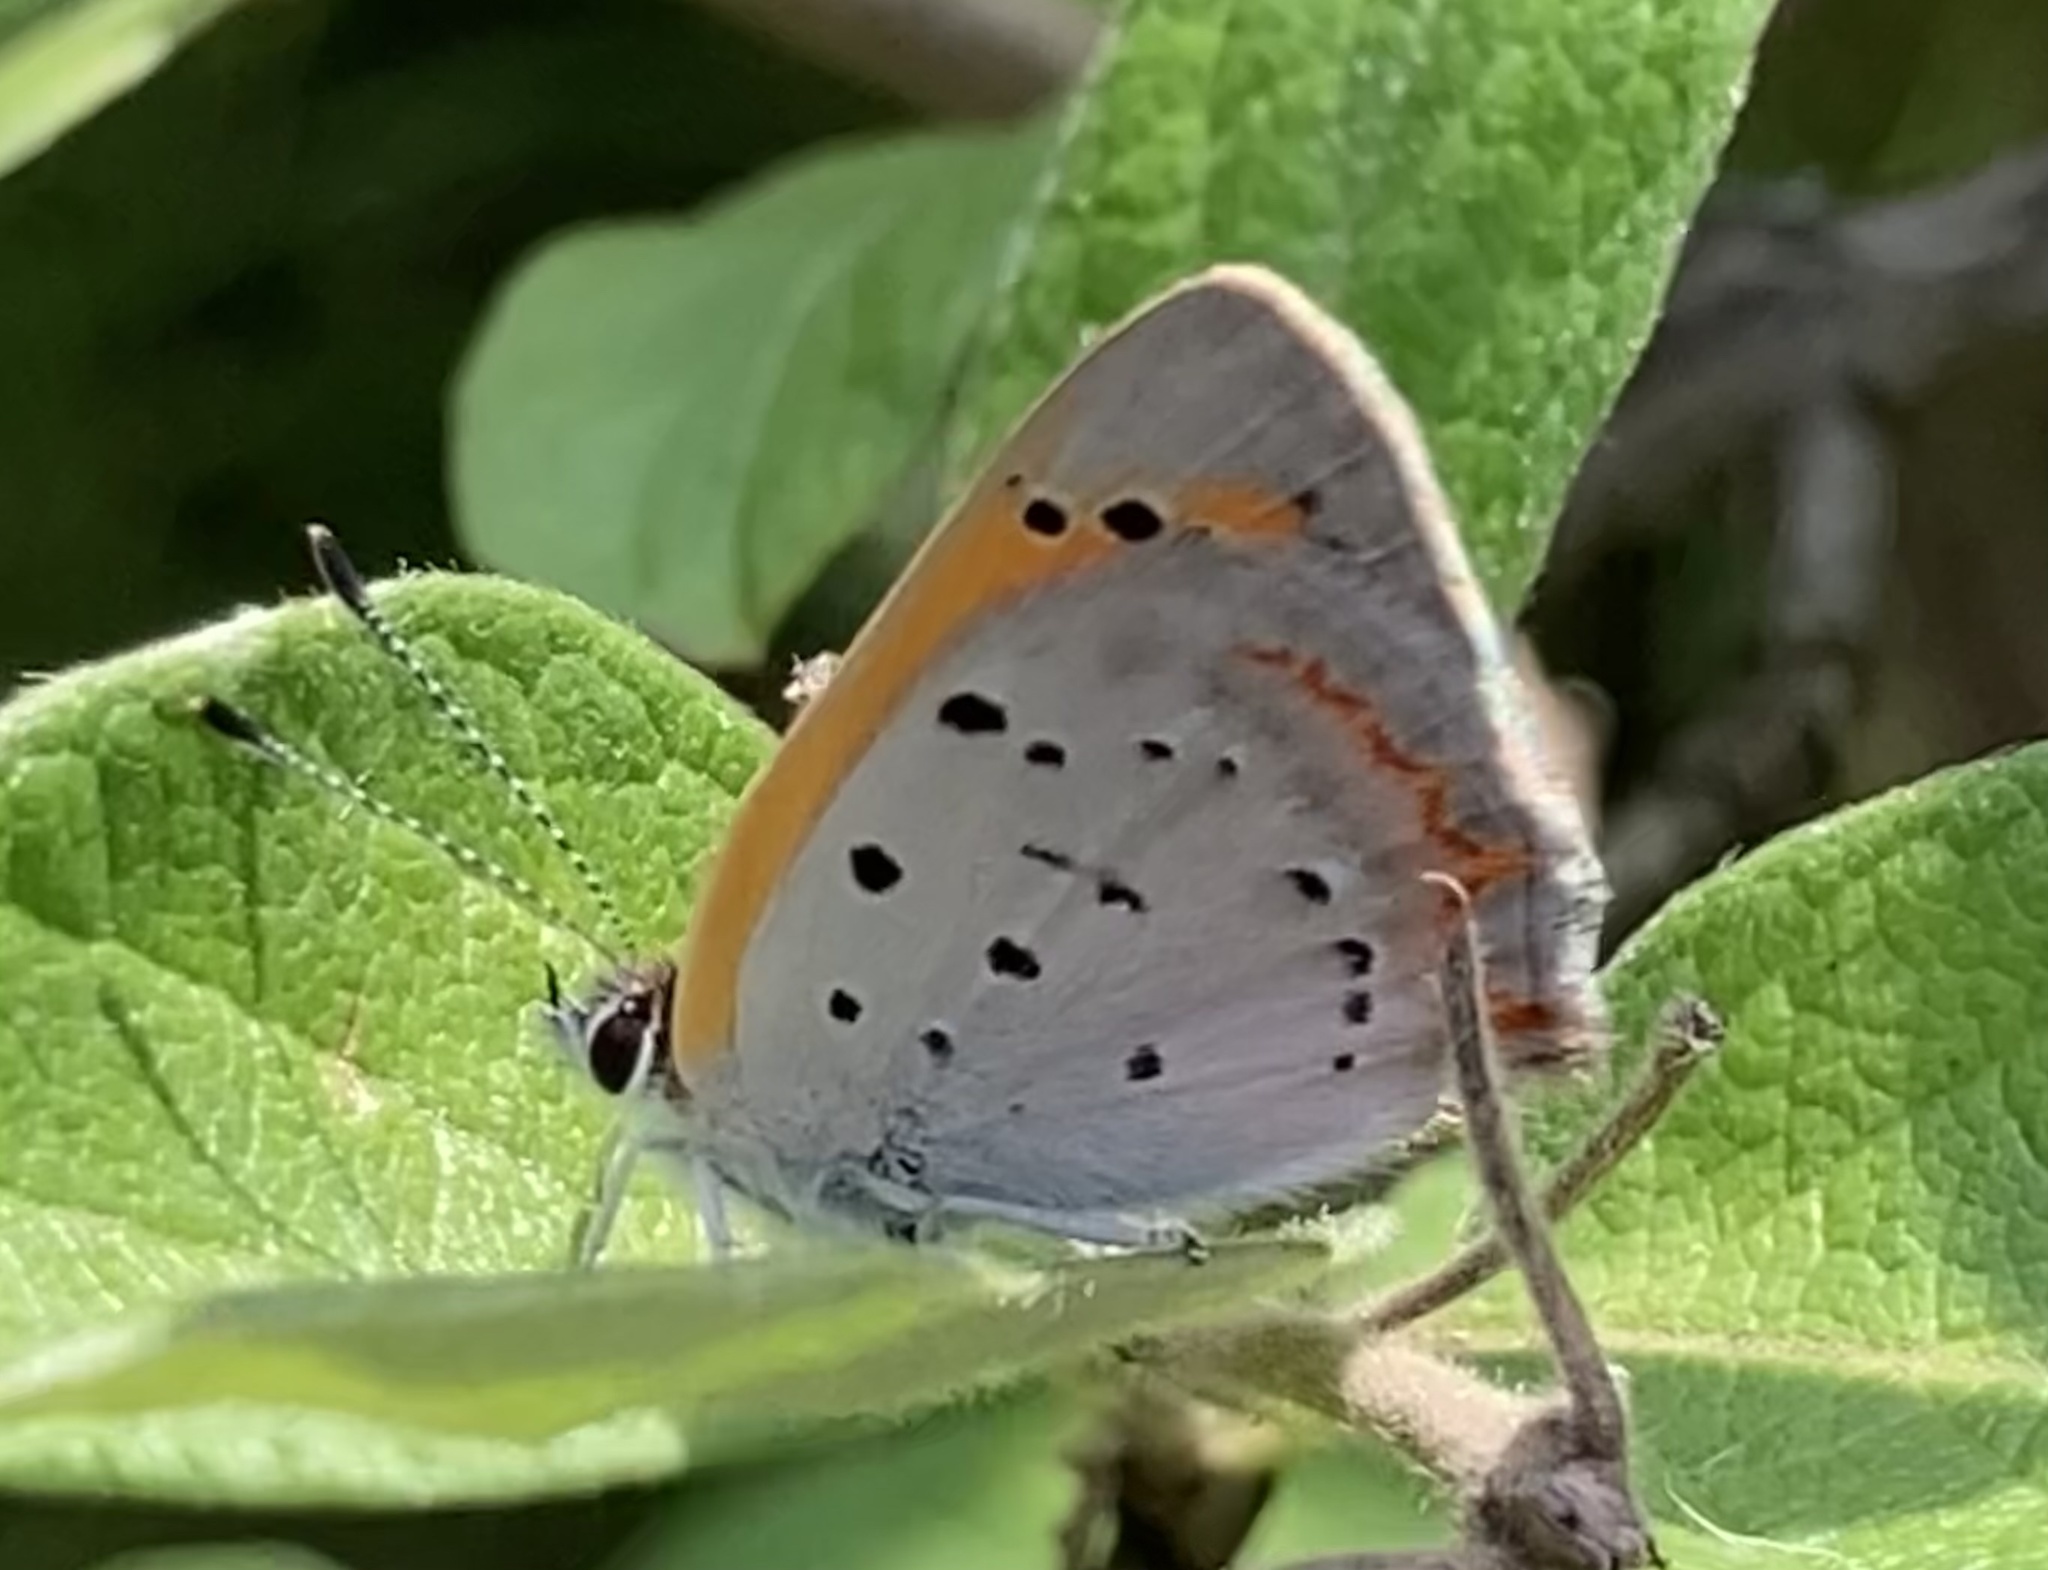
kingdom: Animalia
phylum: Arthropoda
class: Insecta
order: Lepidoptera
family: Lycaenidae
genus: Lycaena
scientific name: Lycaena hypophlaeas
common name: American copper
